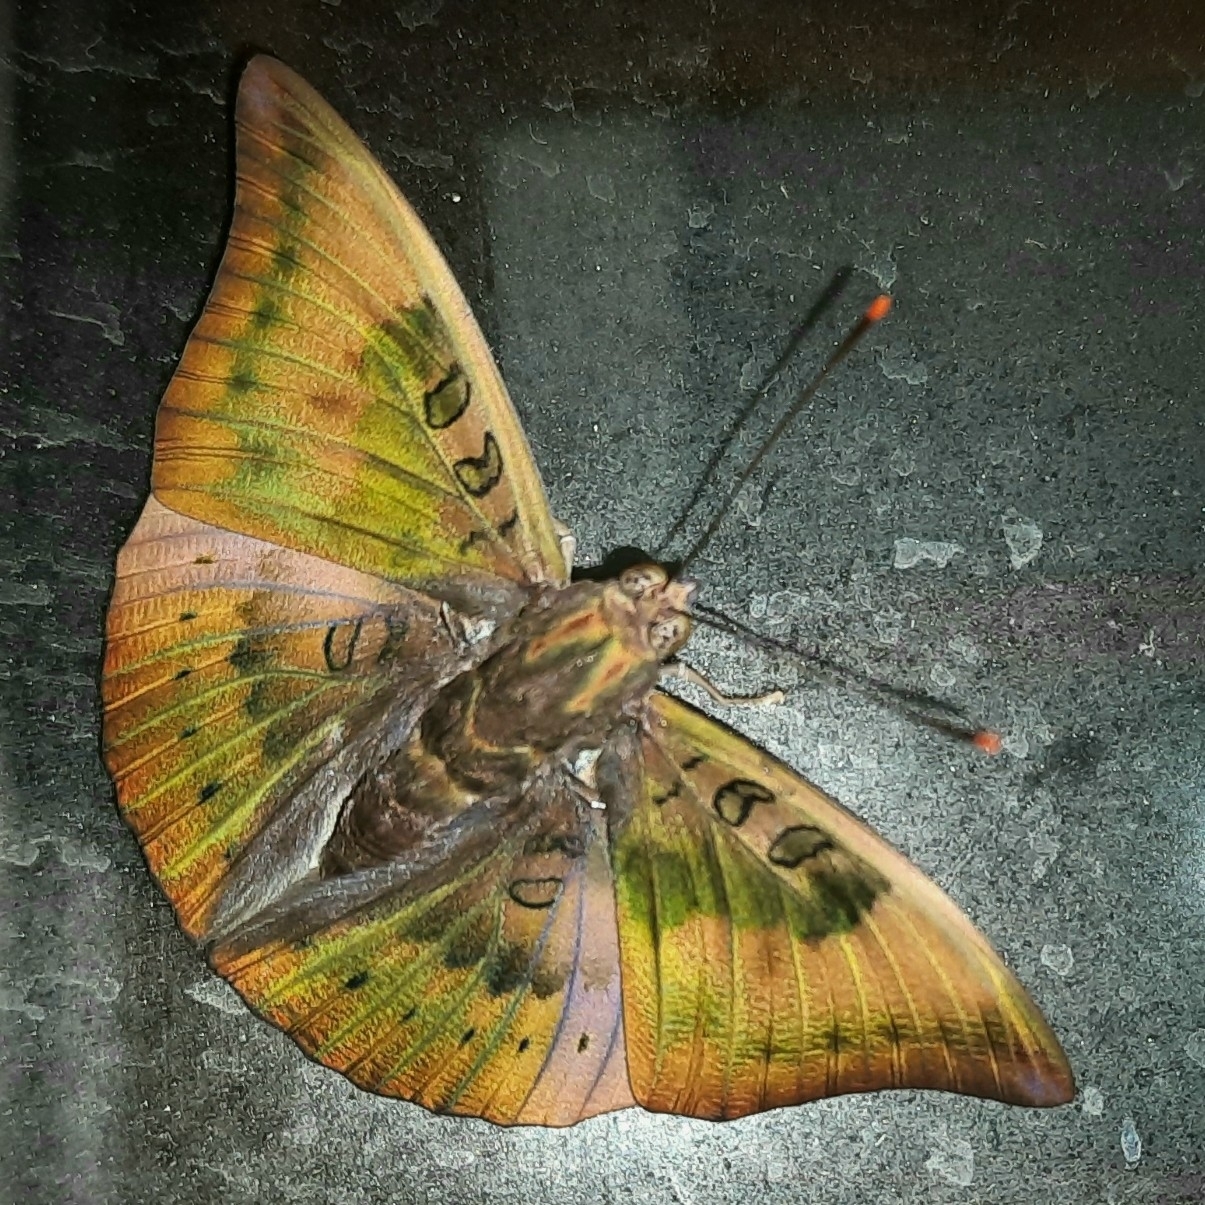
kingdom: Animalia
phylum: Arthropoda
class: Insecta
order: Lepidoptera
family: Nymphalidae
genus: Euthalia
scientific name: Euthalia aconthea
